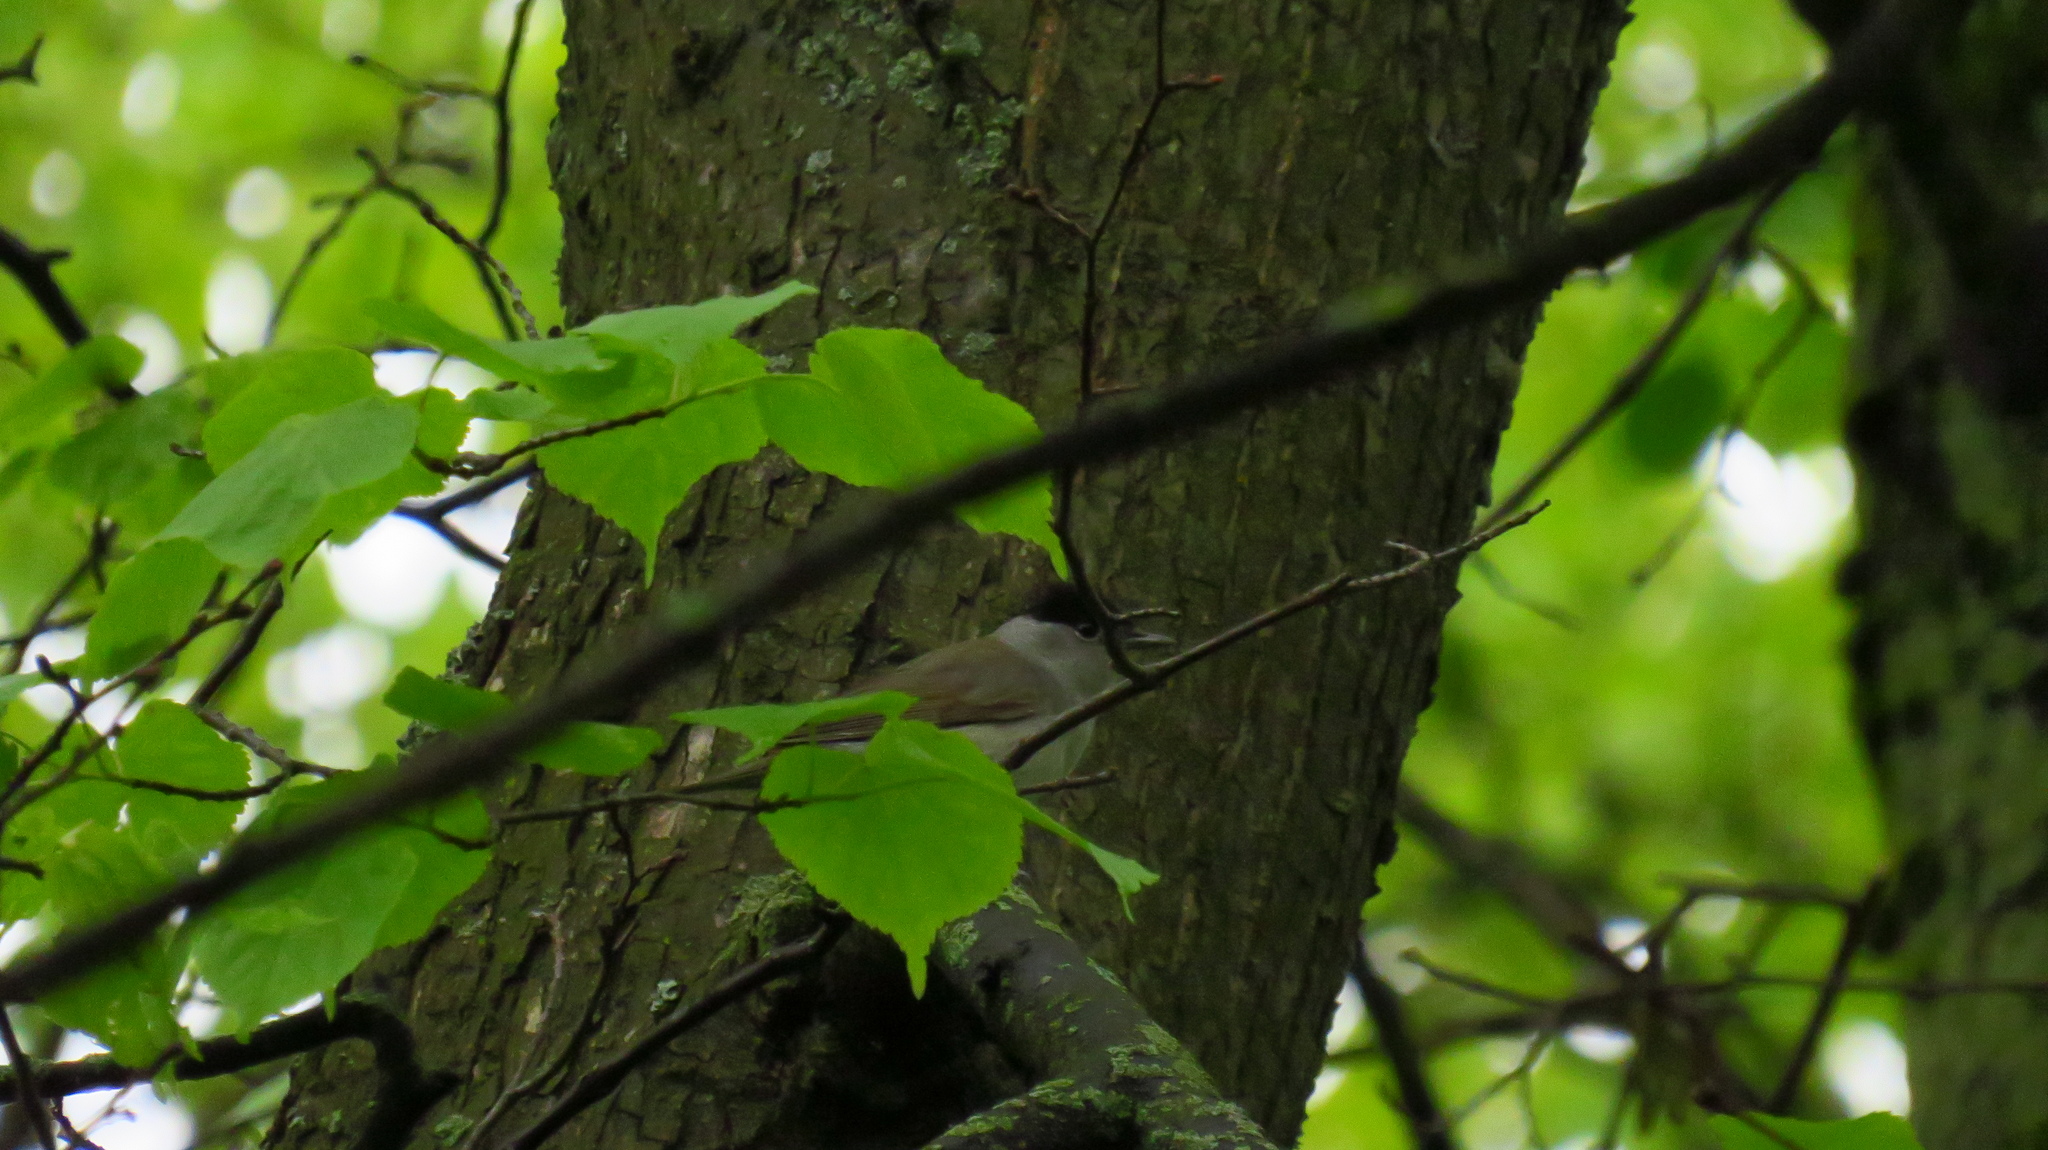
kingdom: Animalia
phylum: Chordata
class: Aves
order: Passeriformes
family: Sylviidae
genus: Sylvia
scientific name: Sylvia atricapilla
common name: Eurasian blackcap
